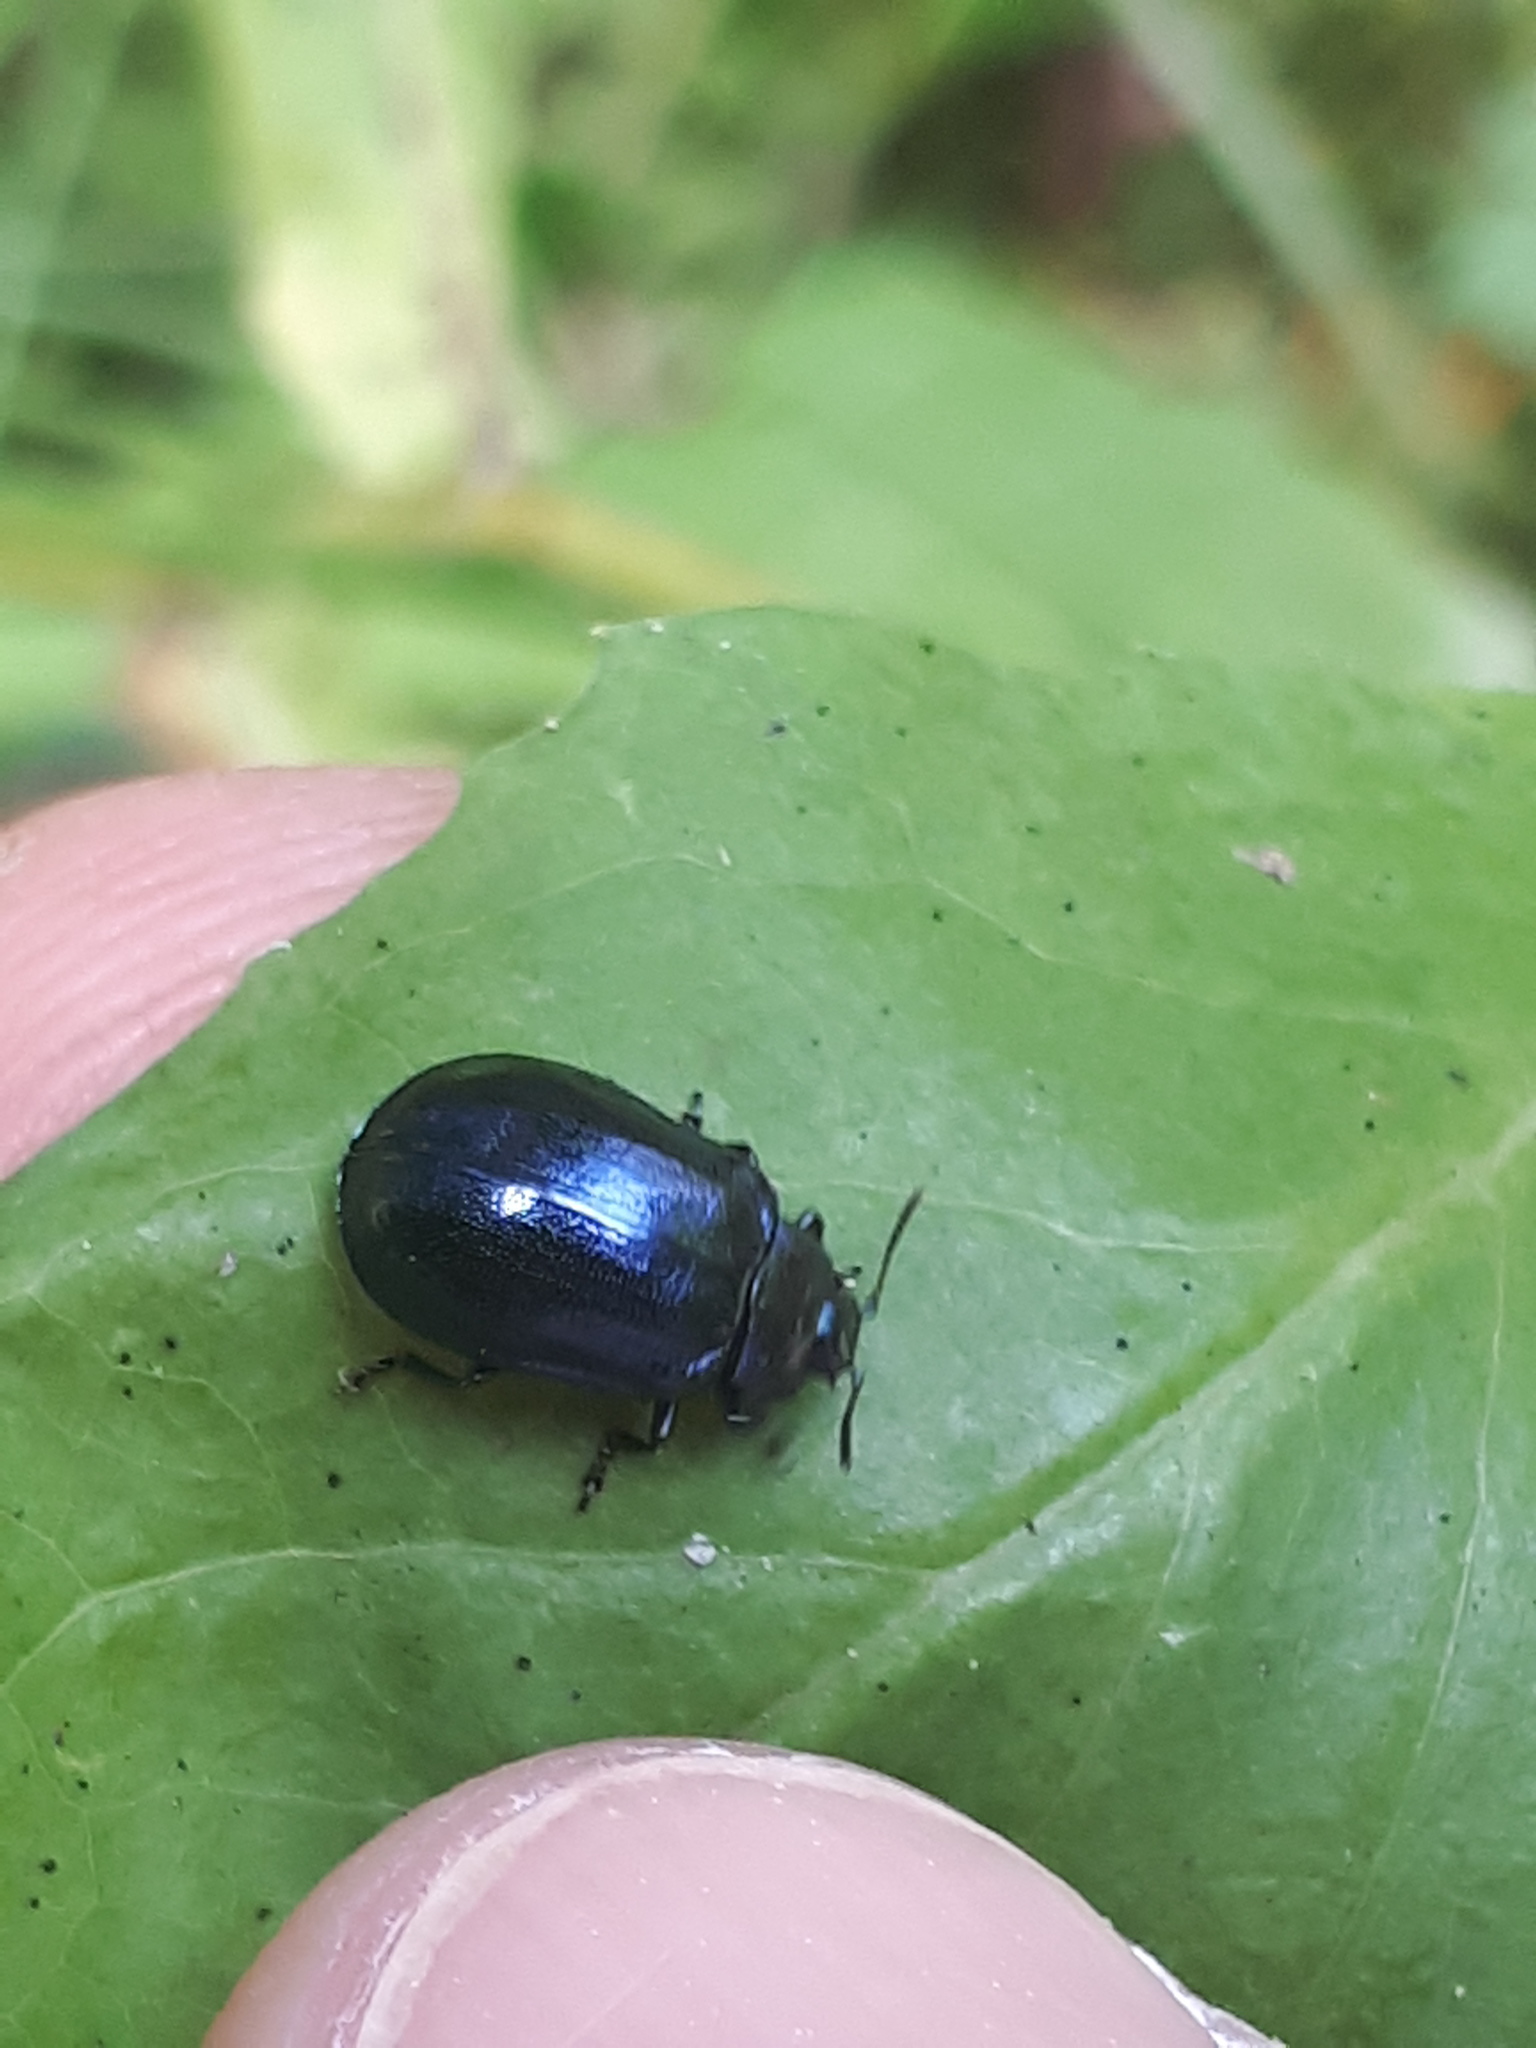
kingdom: Animalia
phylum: Arthropoda
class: Insecta
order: Coleoptera
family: Chrysomelidae
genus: Plagiosterna
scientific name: Plagiosterna aenea
